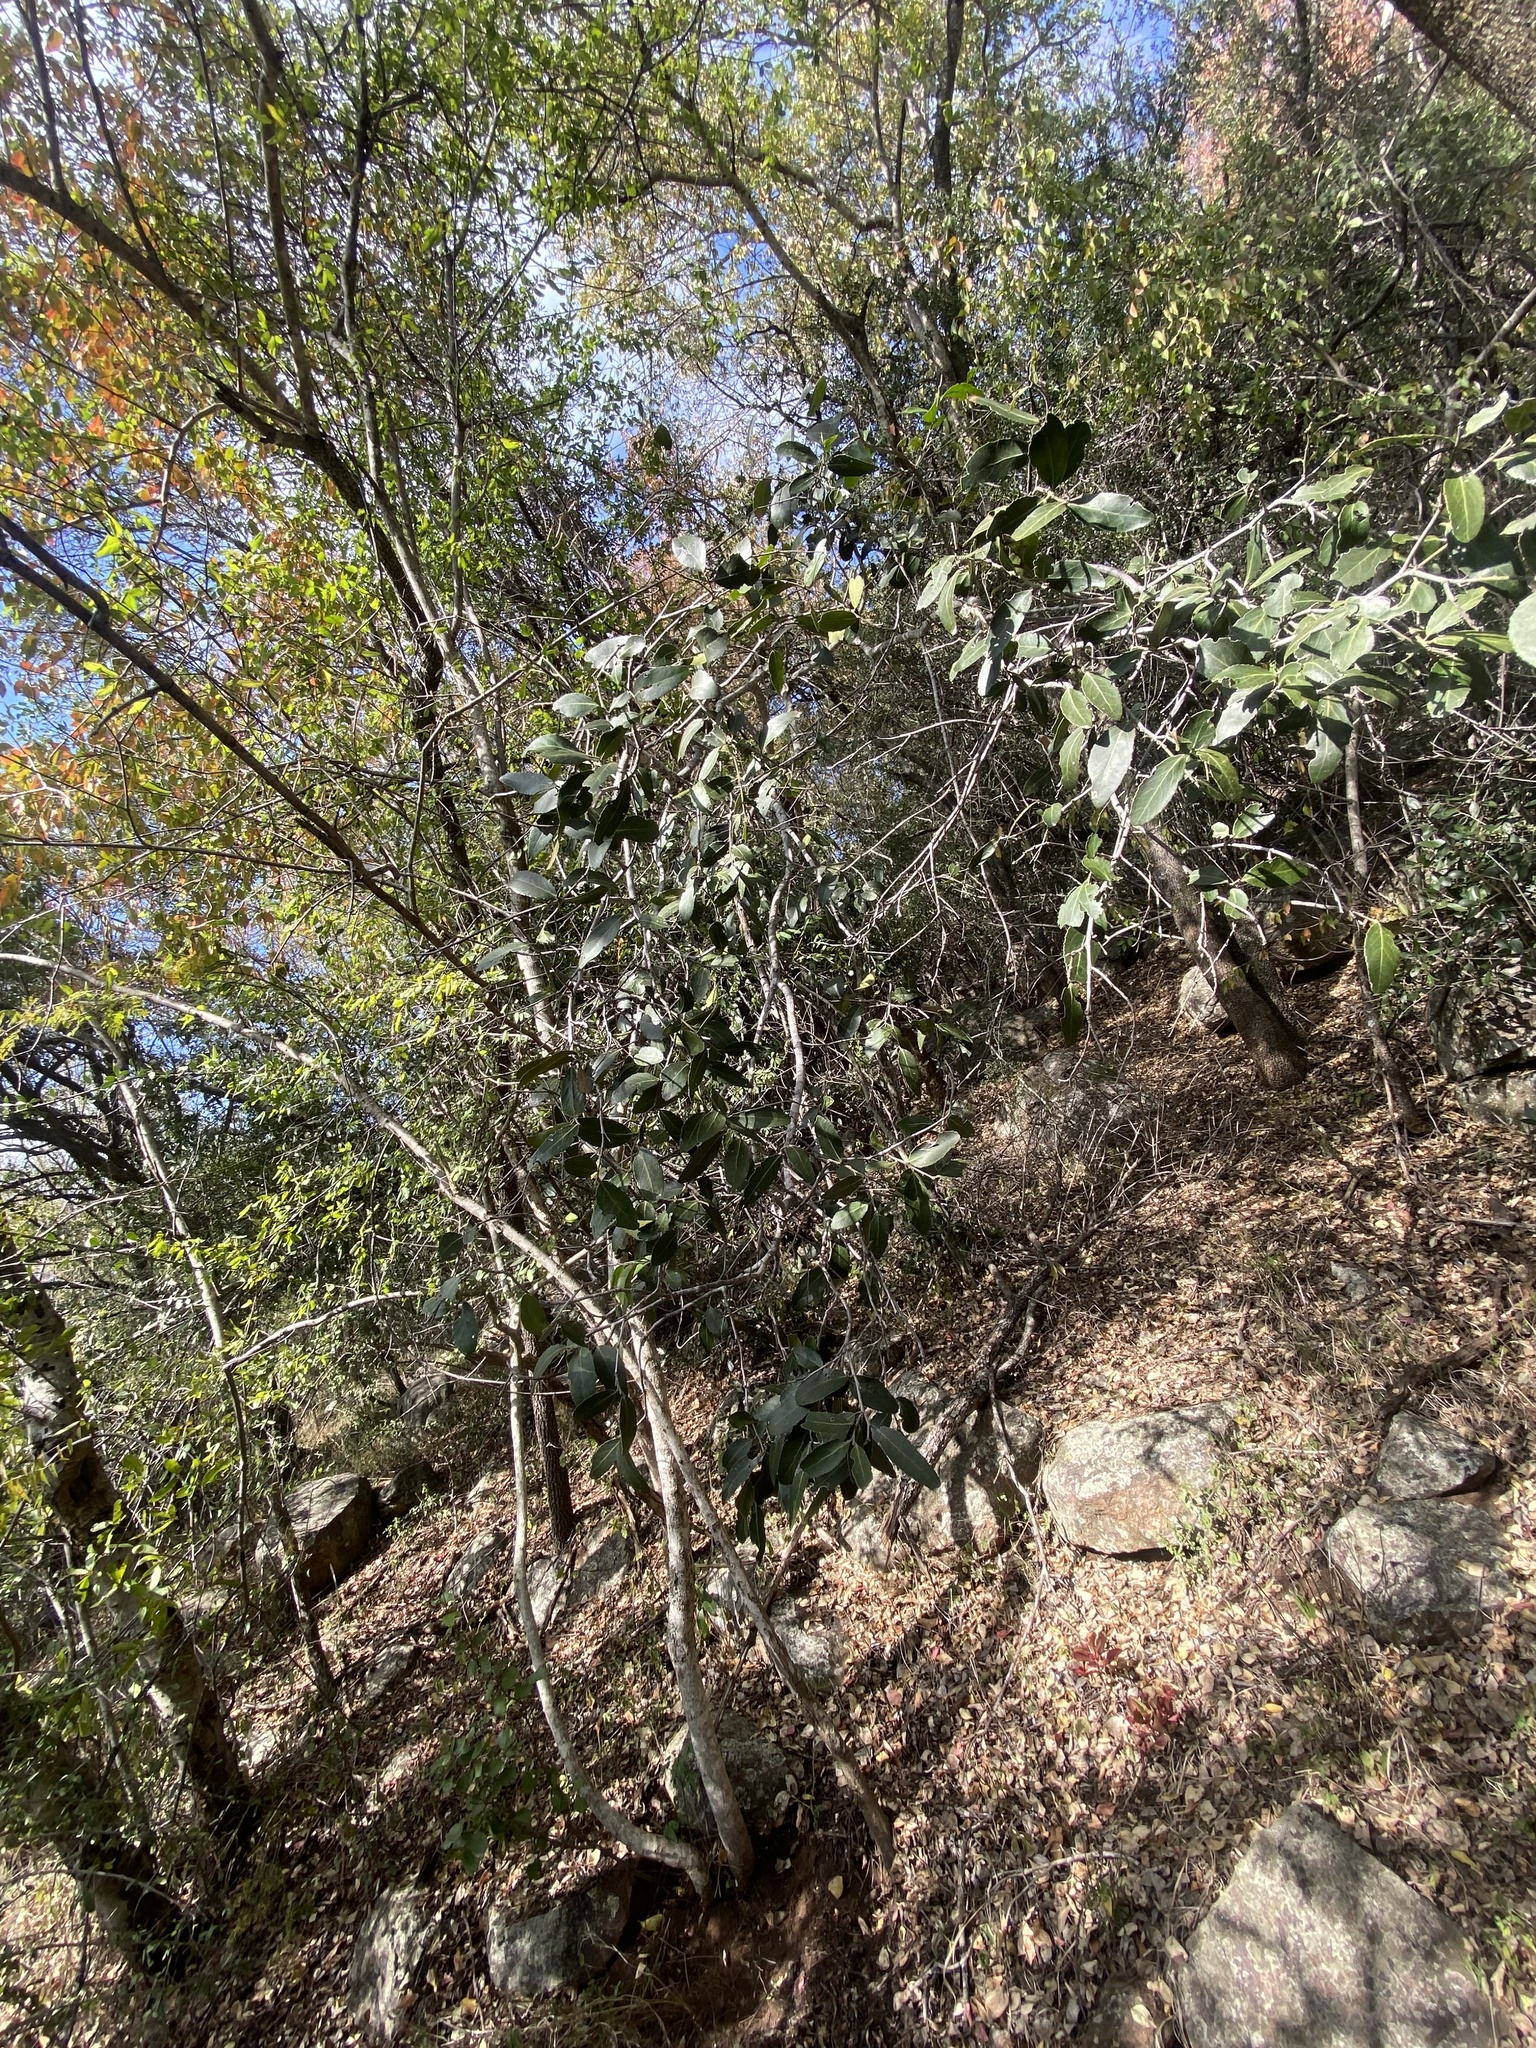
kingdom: Plantae
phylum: Tracheophyta
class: Magnoliopsida
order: Celastrales
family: Celastraceae
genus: Mystroxylon
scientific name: Mystroxylon aethiopicum
